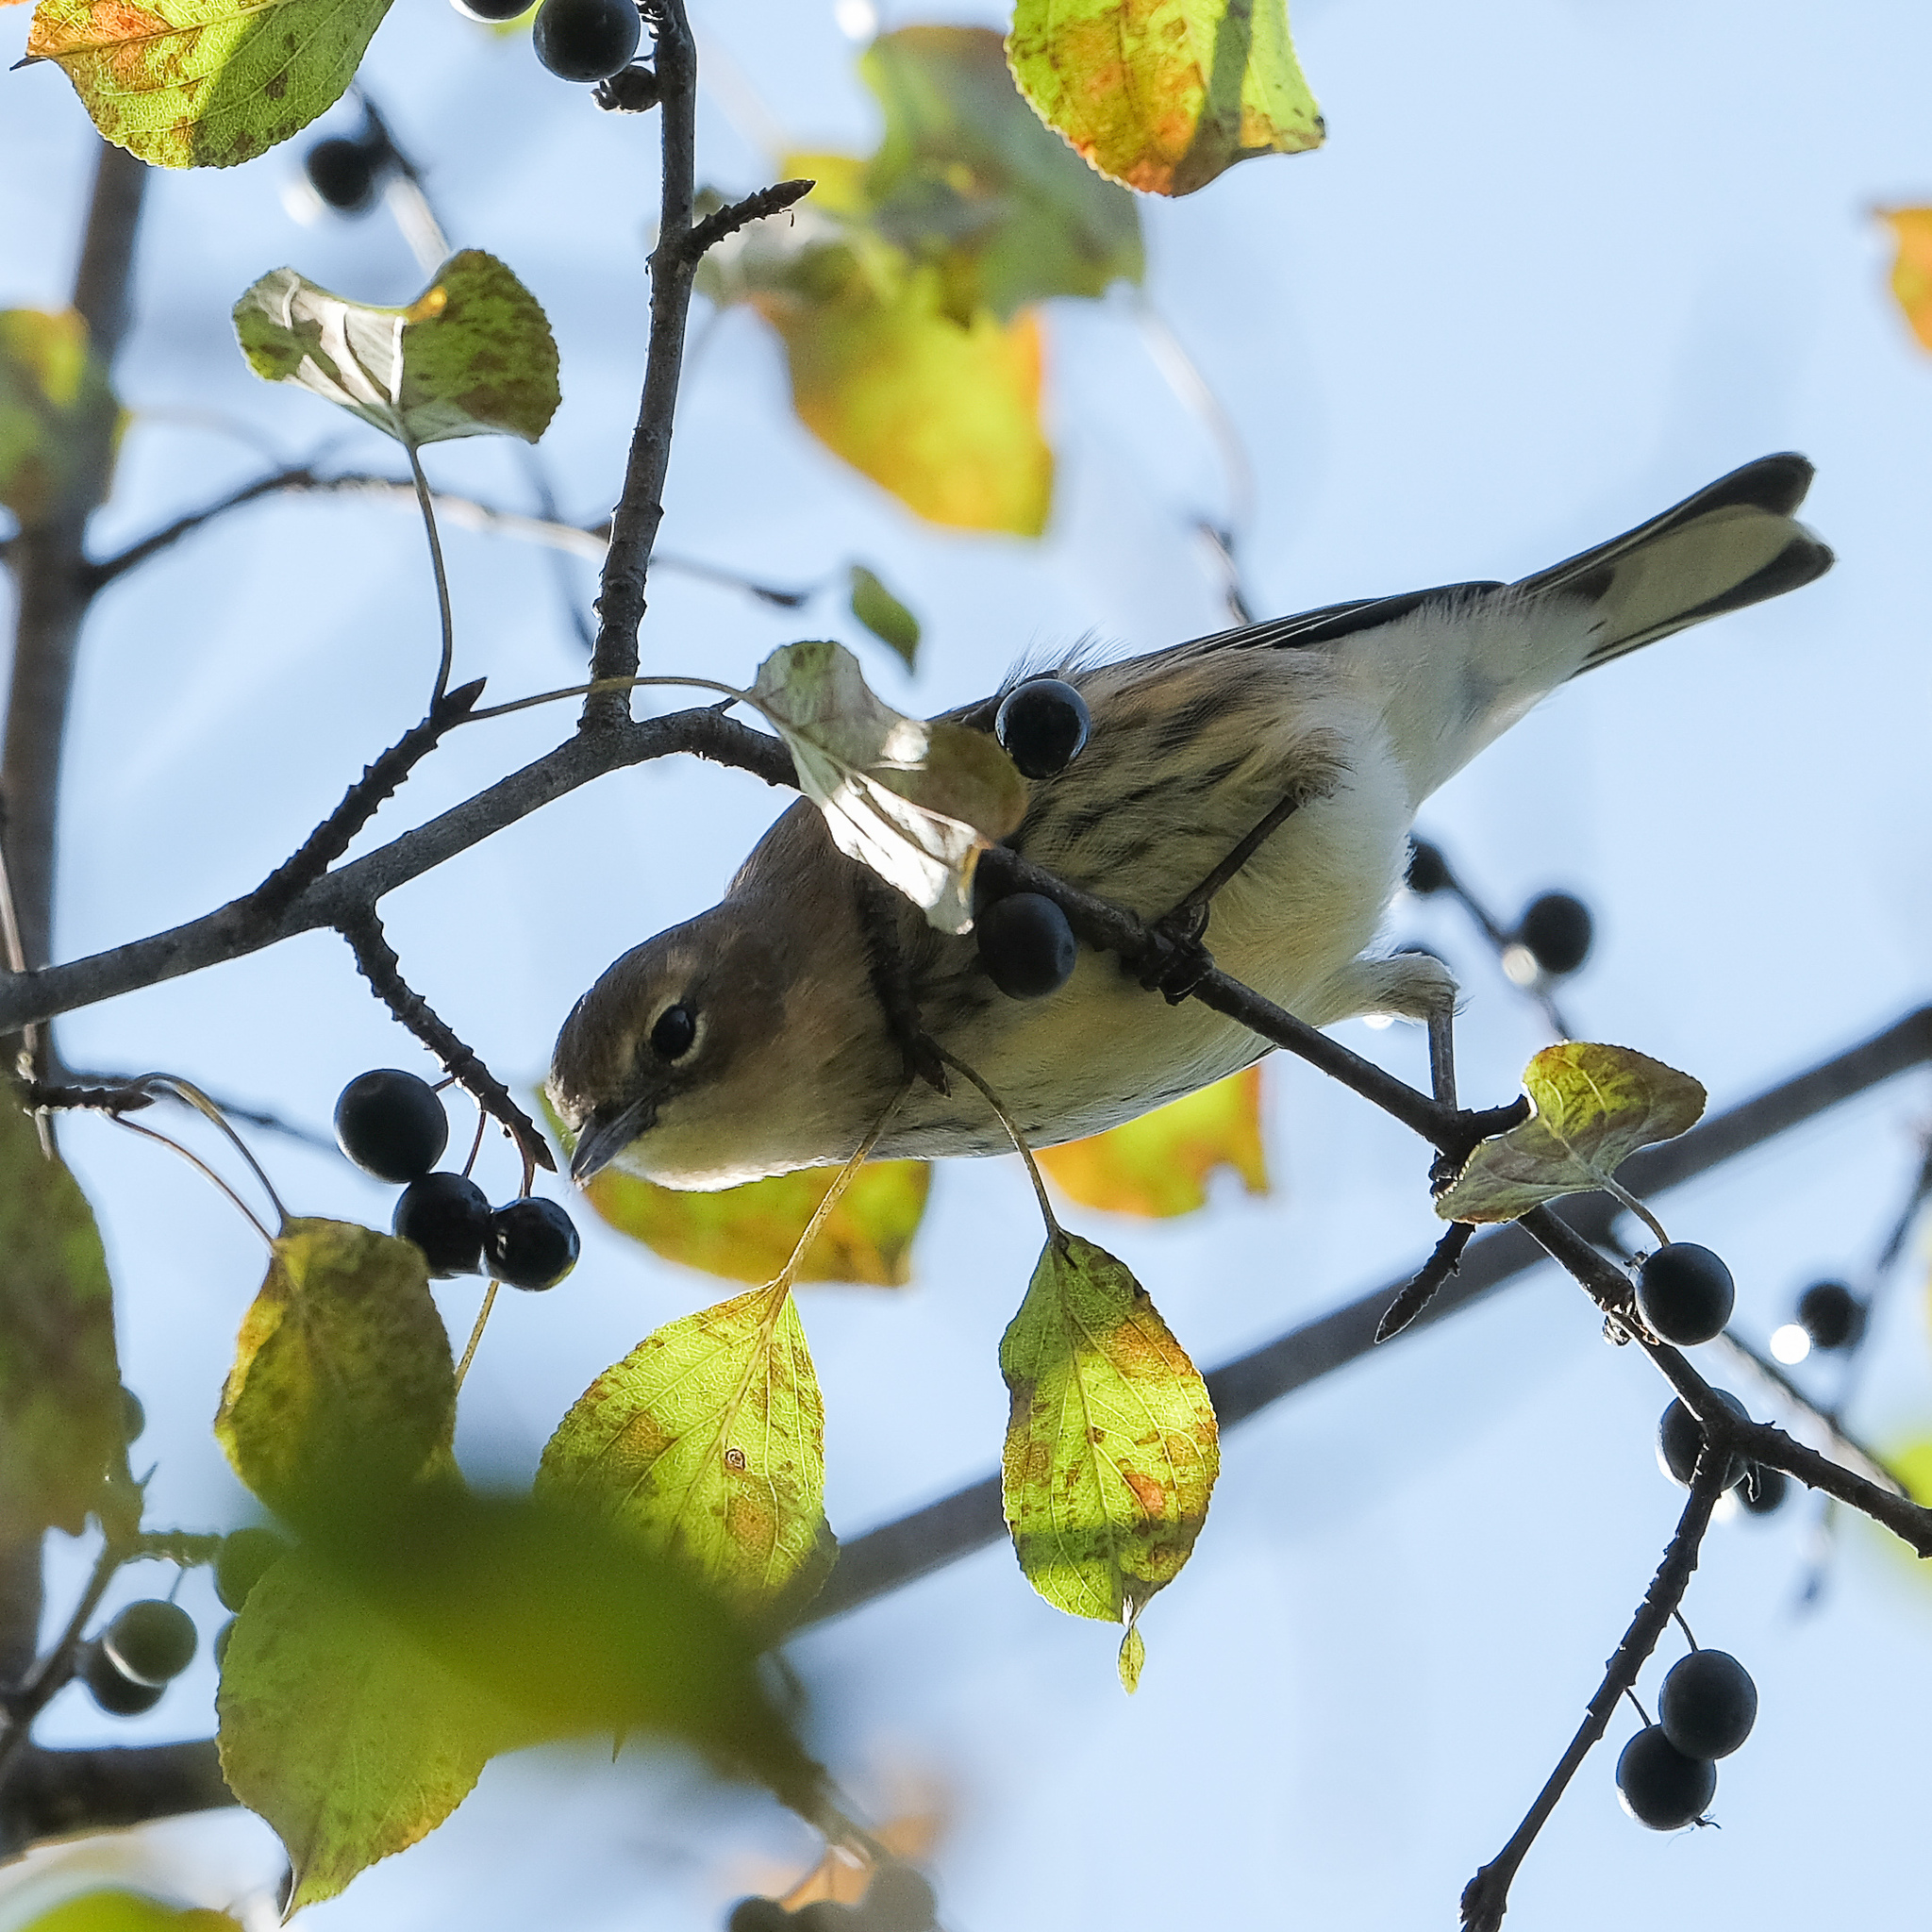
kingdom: Animalia
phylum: Chordata
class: Aves
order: Passeriformes
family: Parulidae
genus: Setophaga
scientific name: Setophaga coronata
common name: Myrtle warbler
